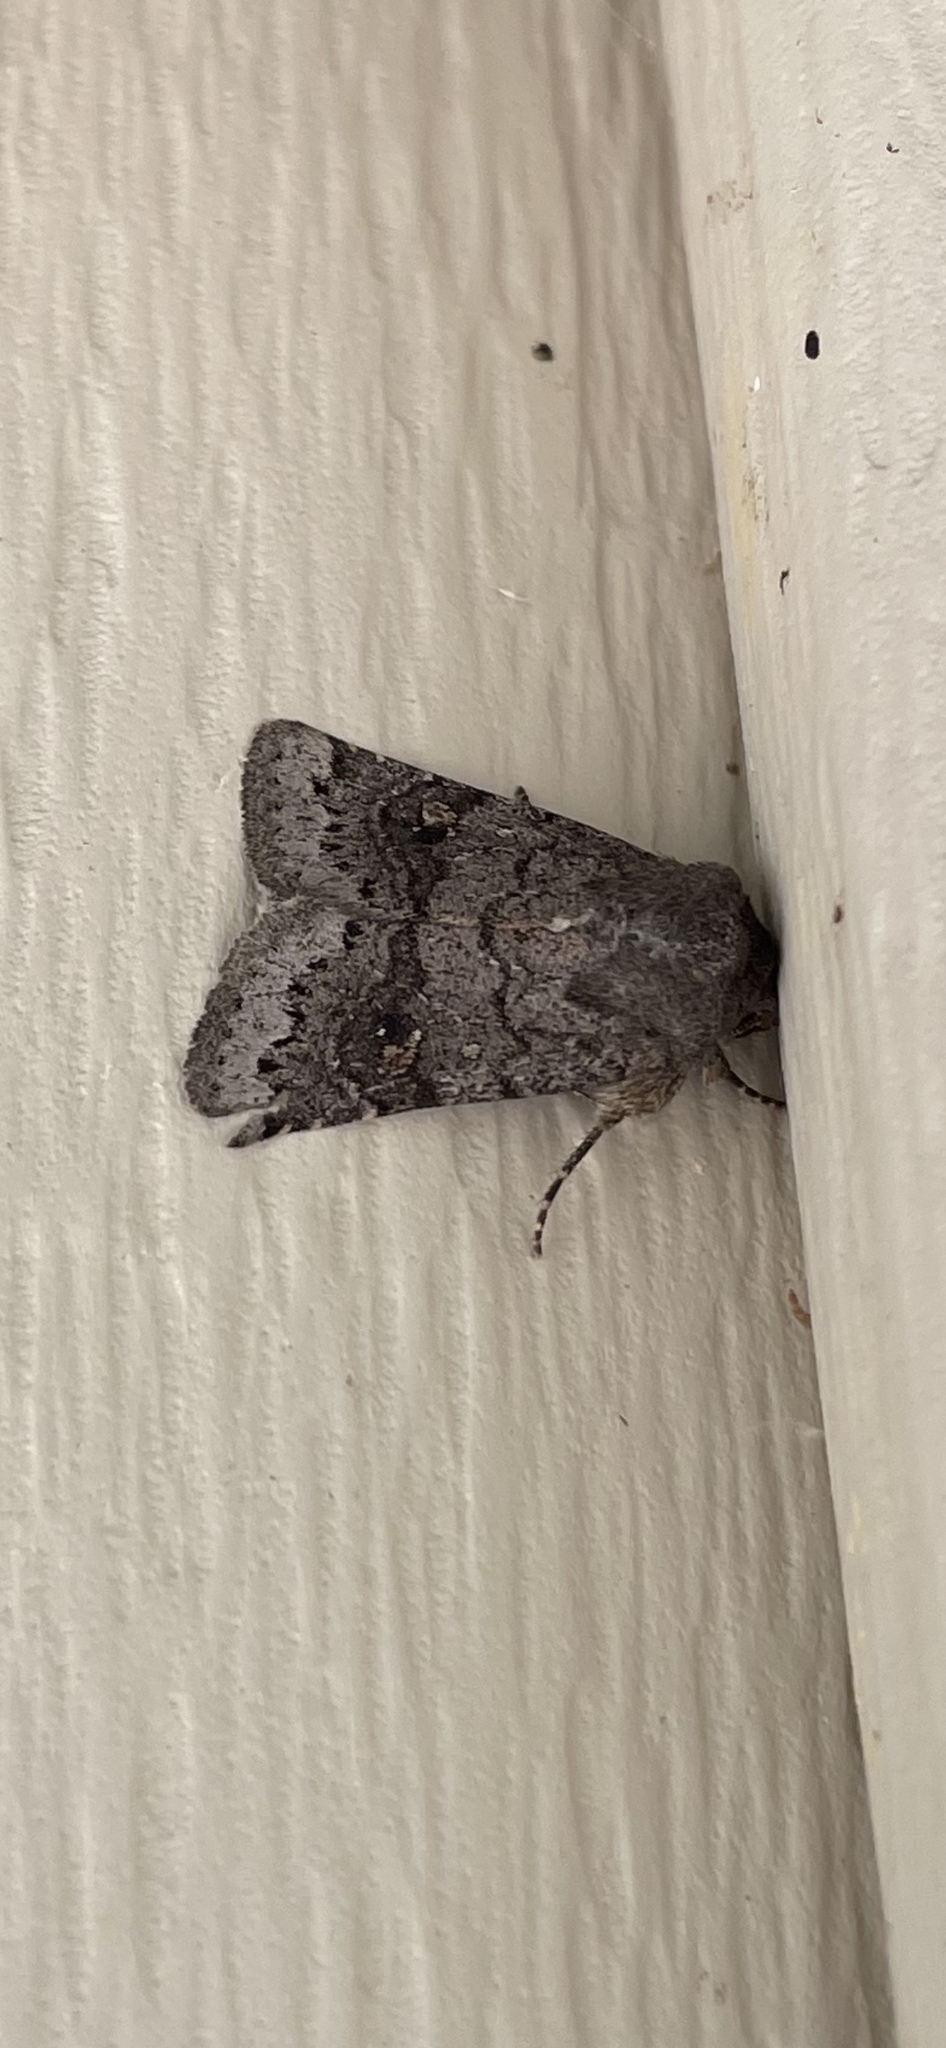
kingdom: Animalia
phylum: Arthropoda
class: Insecta
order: Lepidoptera
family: Noctuidae
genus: Ulolonche
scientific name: Ulolonche modesta
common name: Modest quaker
